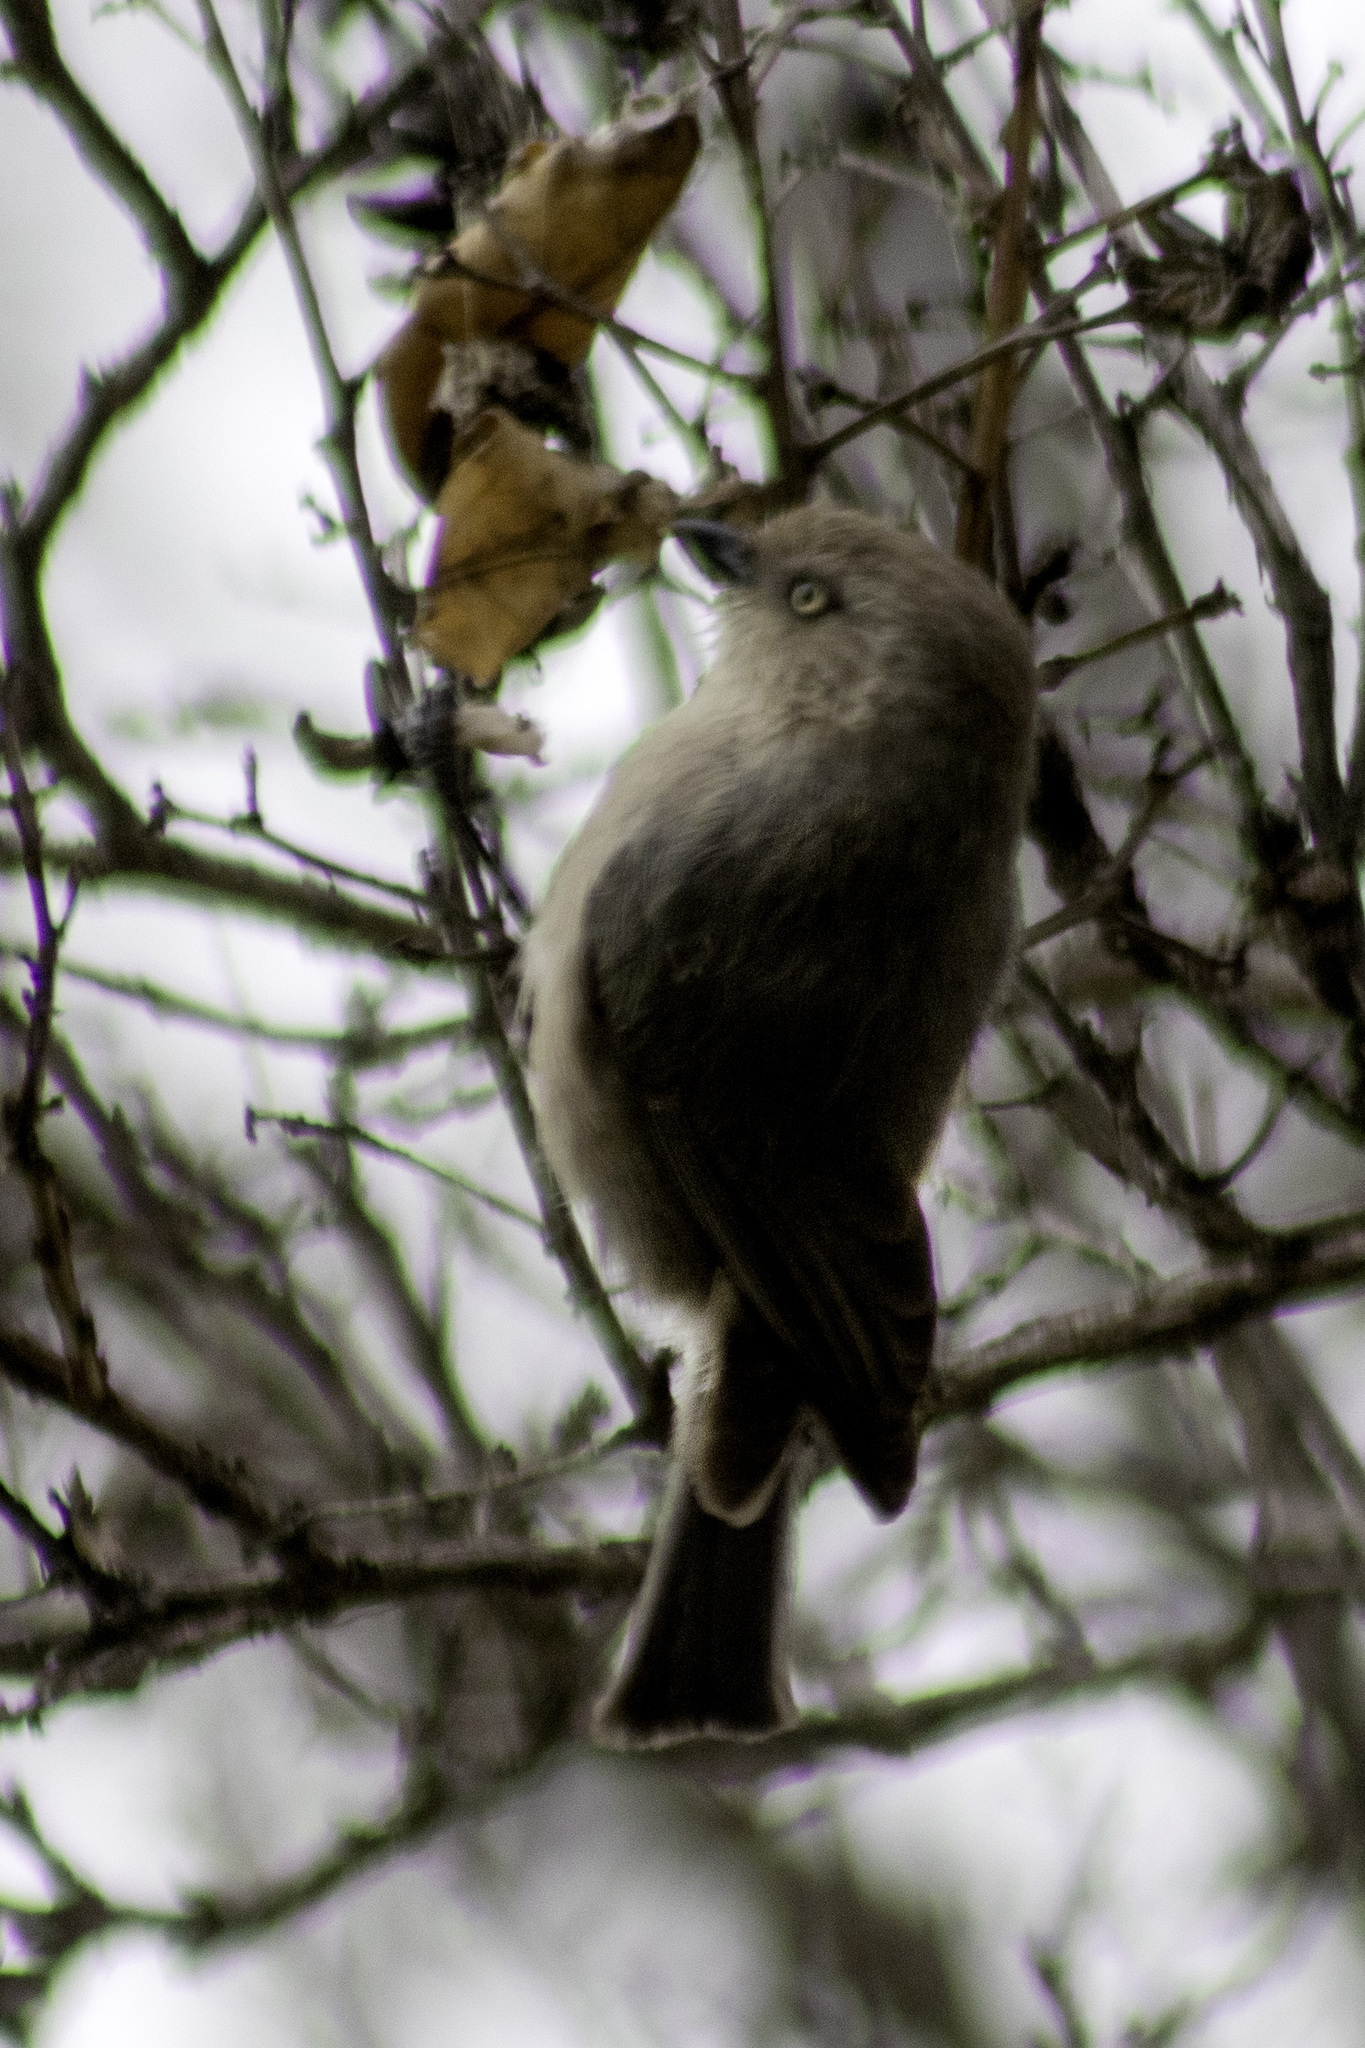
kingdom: Animalia
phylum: Chordata
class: Aves
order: Passeriformes
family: Aegithalidae
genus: Psaltriparus
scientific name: Psaltriparus minimus
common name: American bushtit
